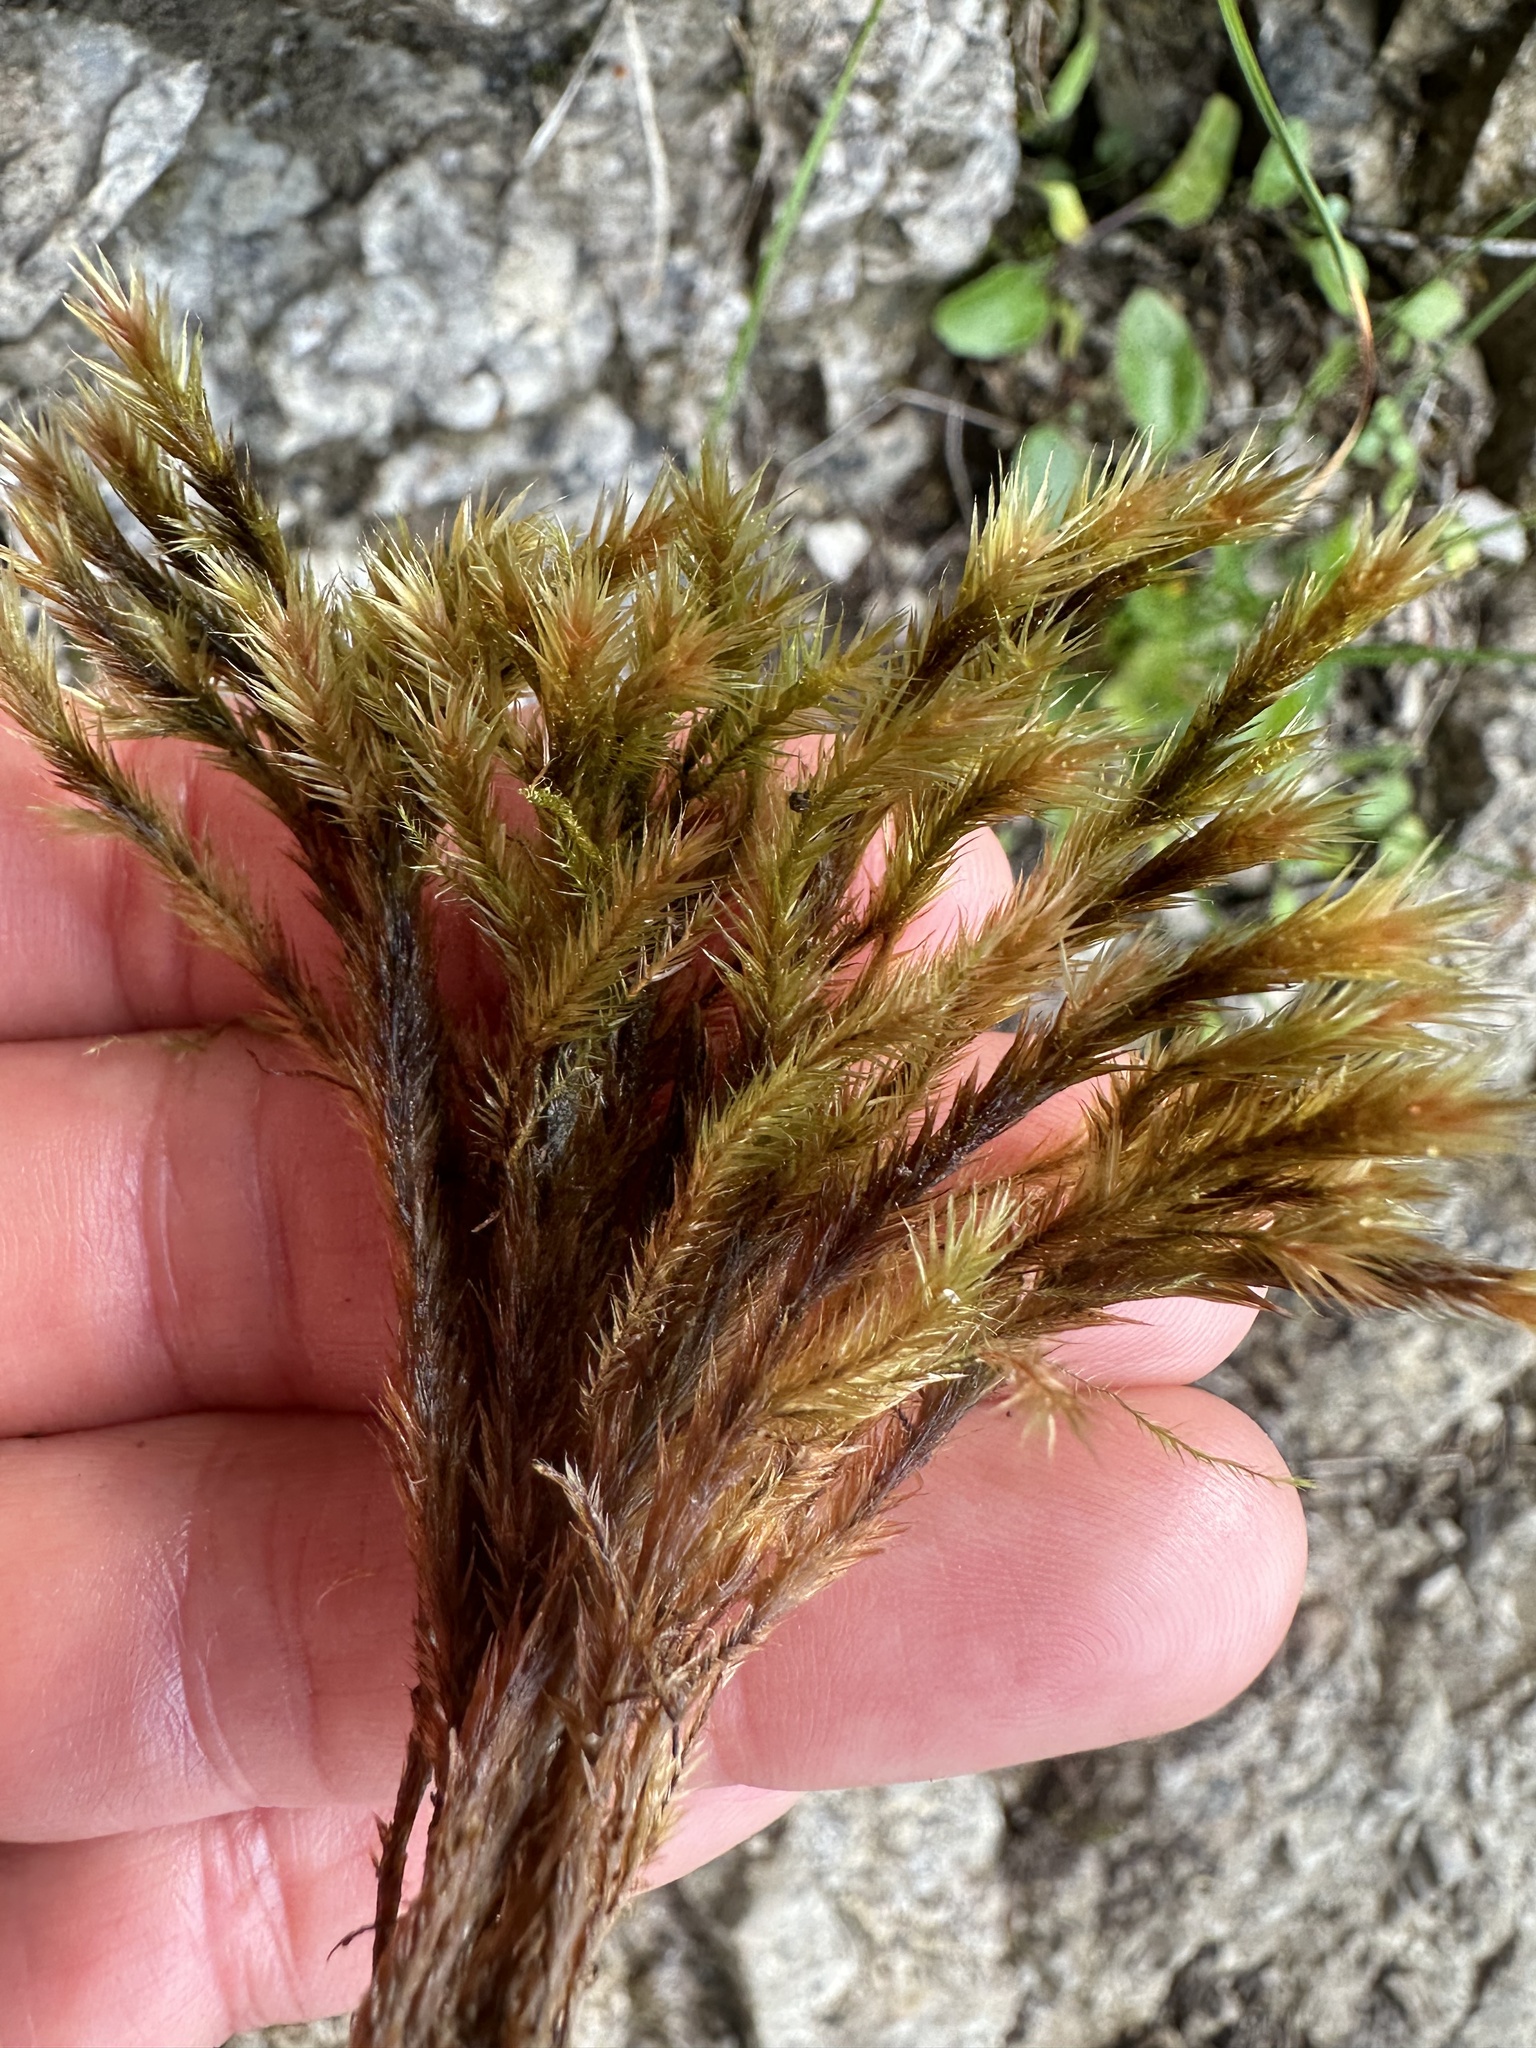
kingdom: Plantae
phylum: Bryophyta
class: Bryopsida
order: Hypnales
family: Plagiotheciaceae
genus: Orthothecium
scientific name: Orthothecium rufescens
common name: Red leskea
